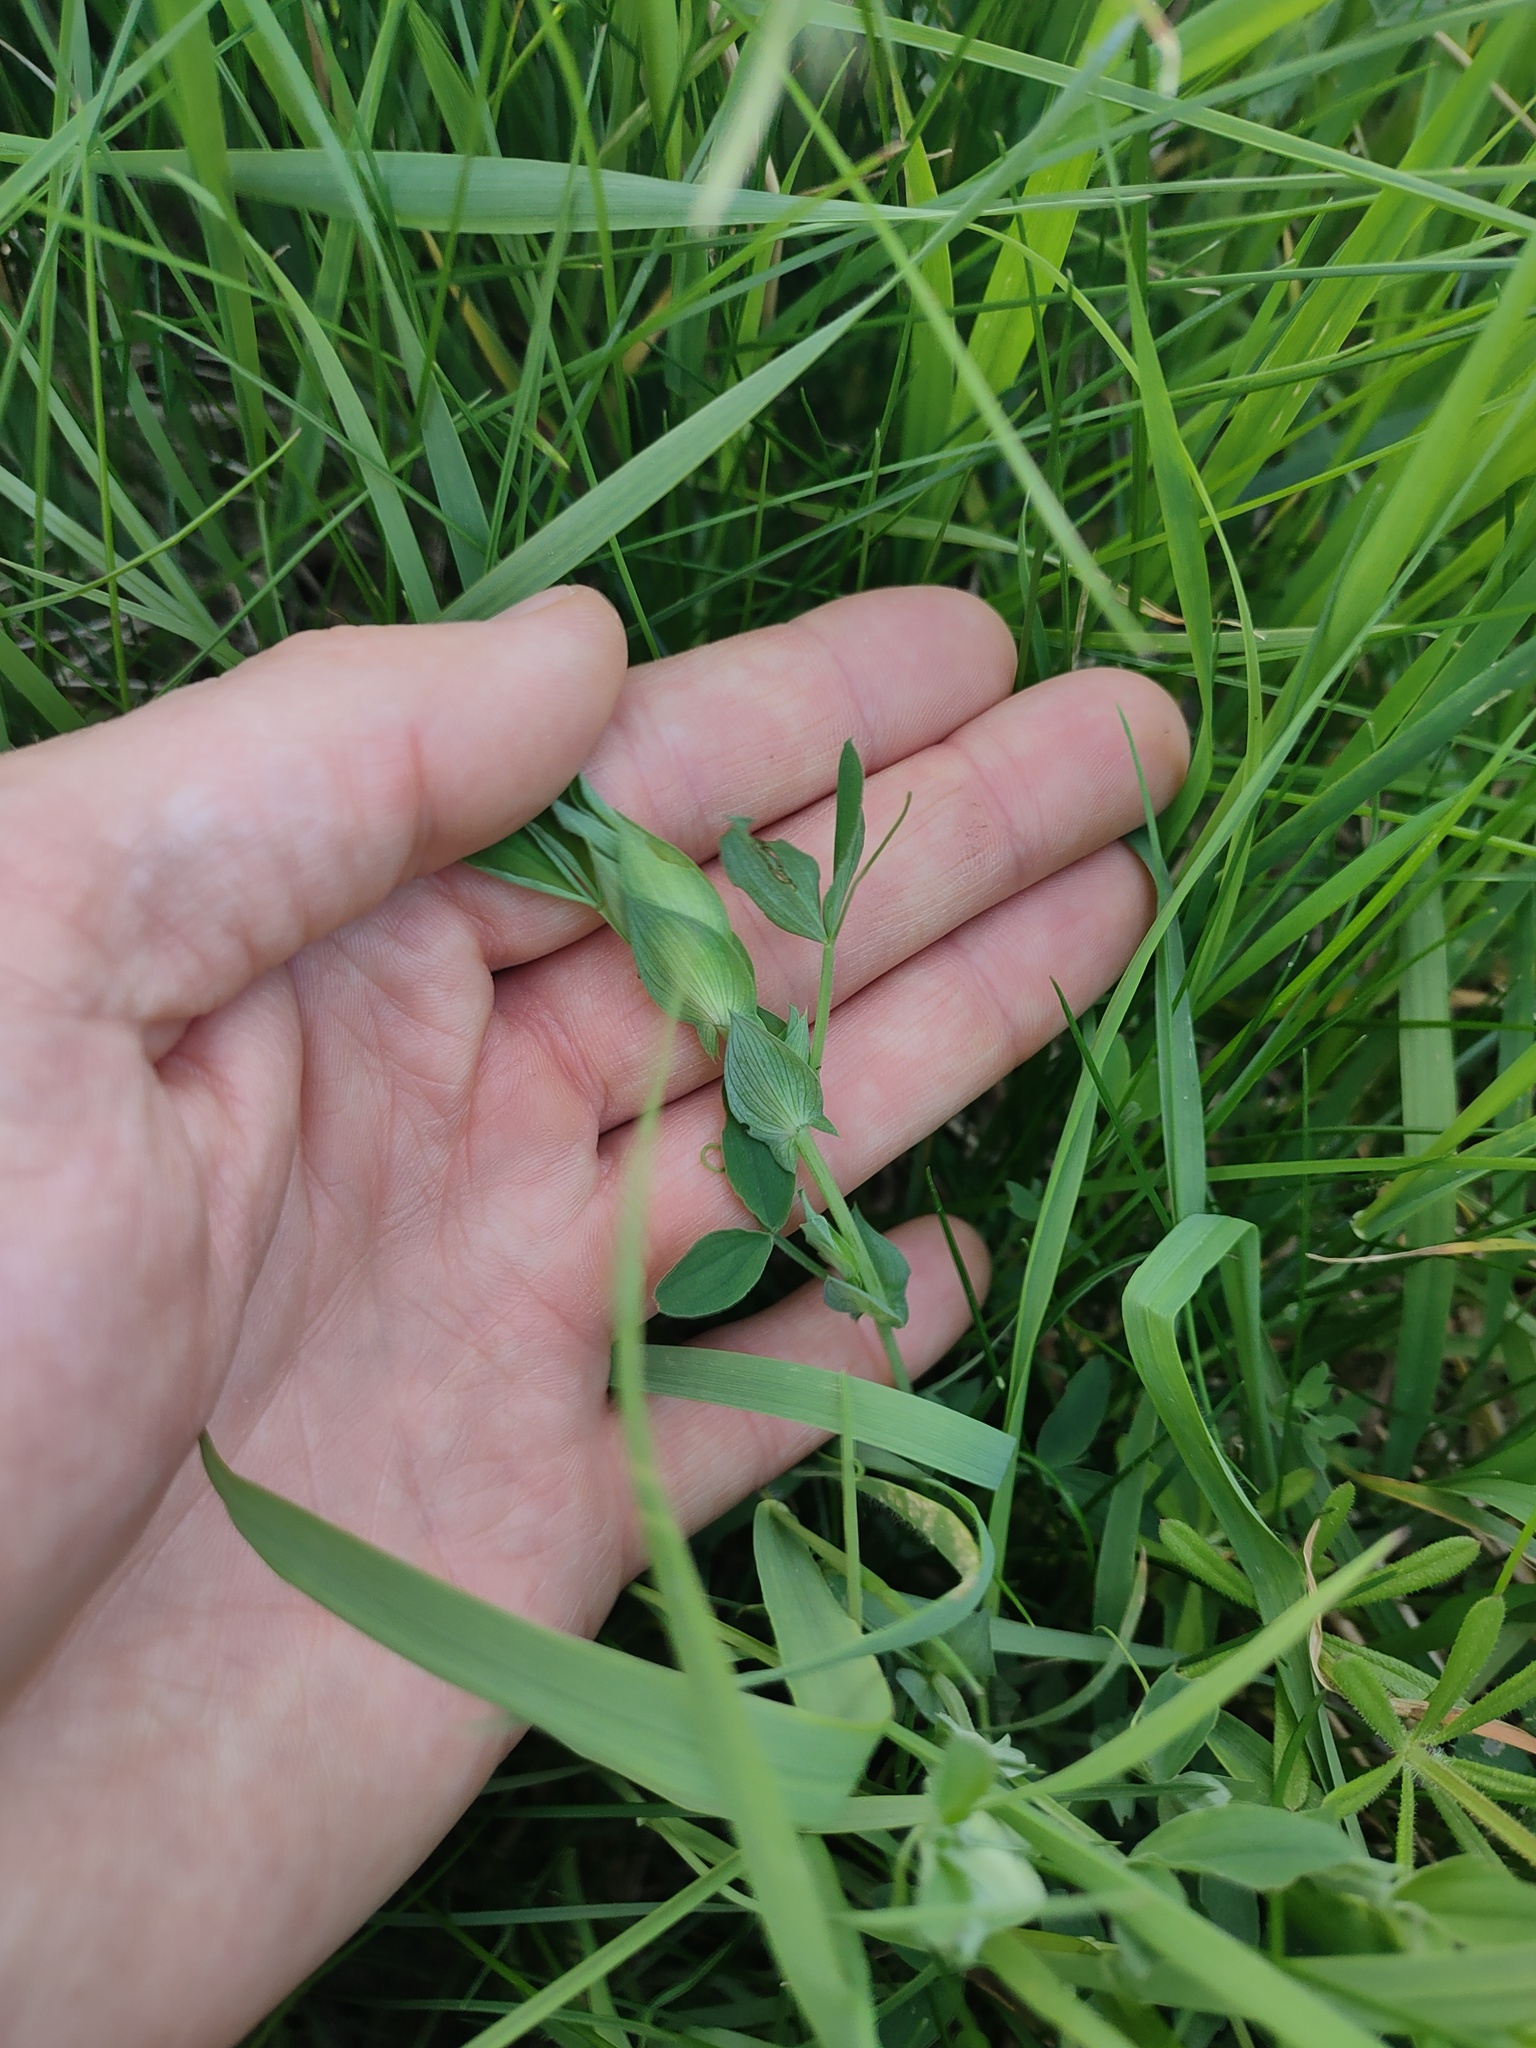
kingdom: Plantae
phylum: Tracheophyta
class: Magnoliopsida
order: Fabales
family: Fabaceae
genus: Lathyrus
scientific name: Lathyrus pratensis
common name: Meadow vetchling
